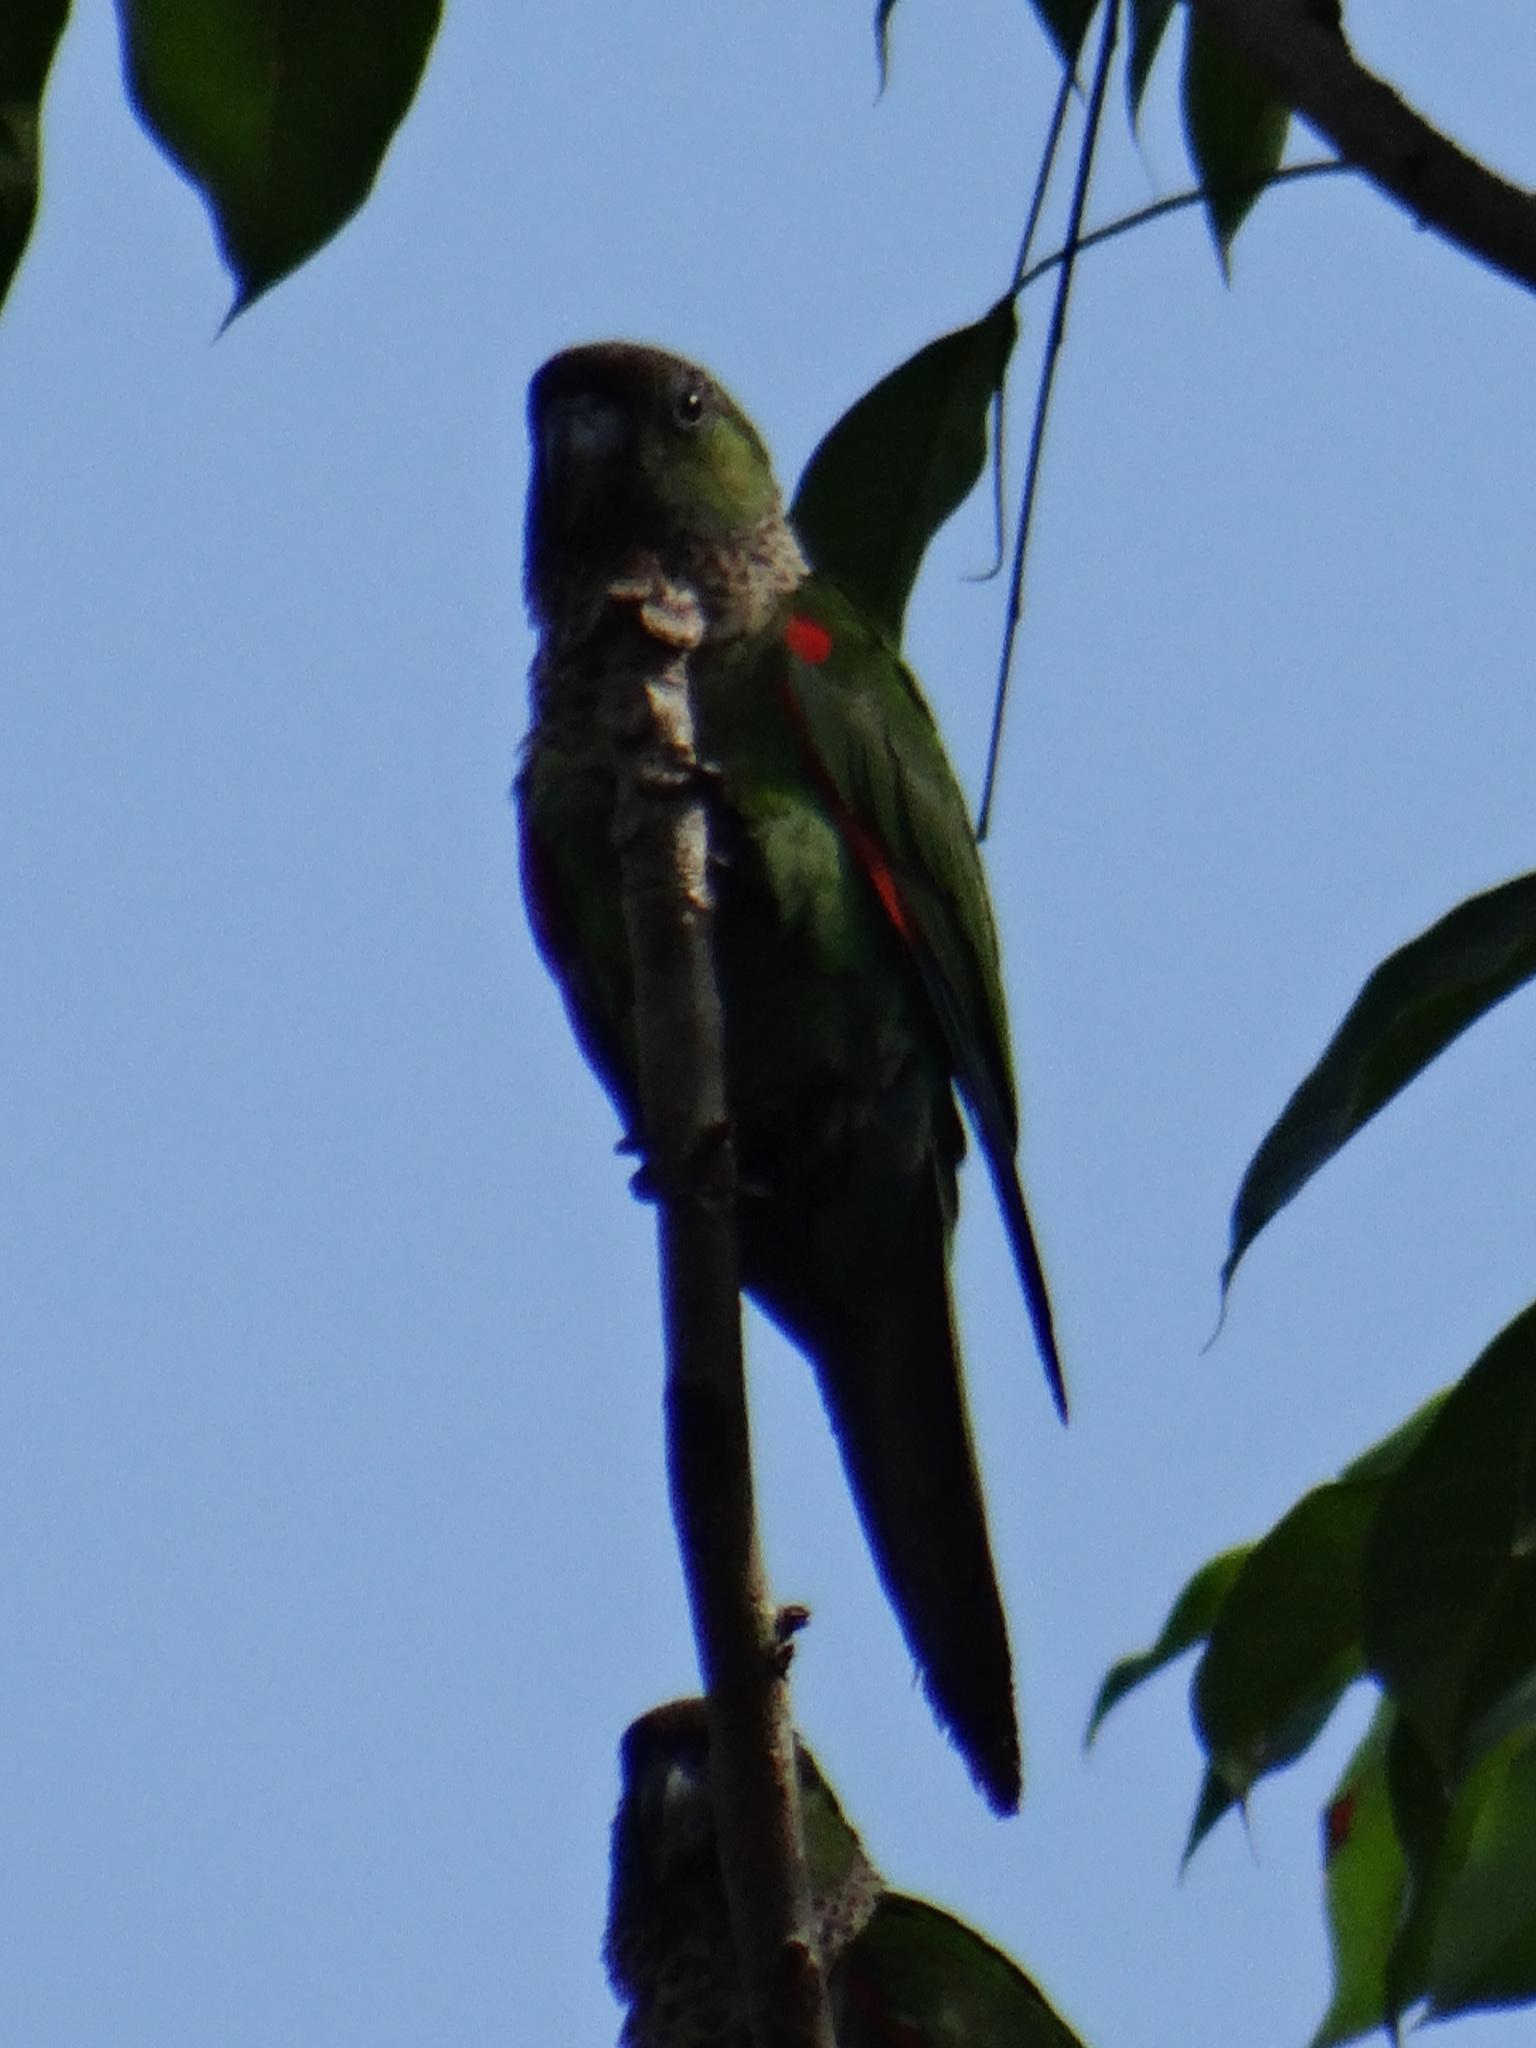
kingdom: Animalia
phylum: Chordata
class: Aves
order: Psittaciformes
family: Psittacidae
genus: Pyrrhura
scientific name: Pyrrhura rupicola
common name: Black-capped parakeet
